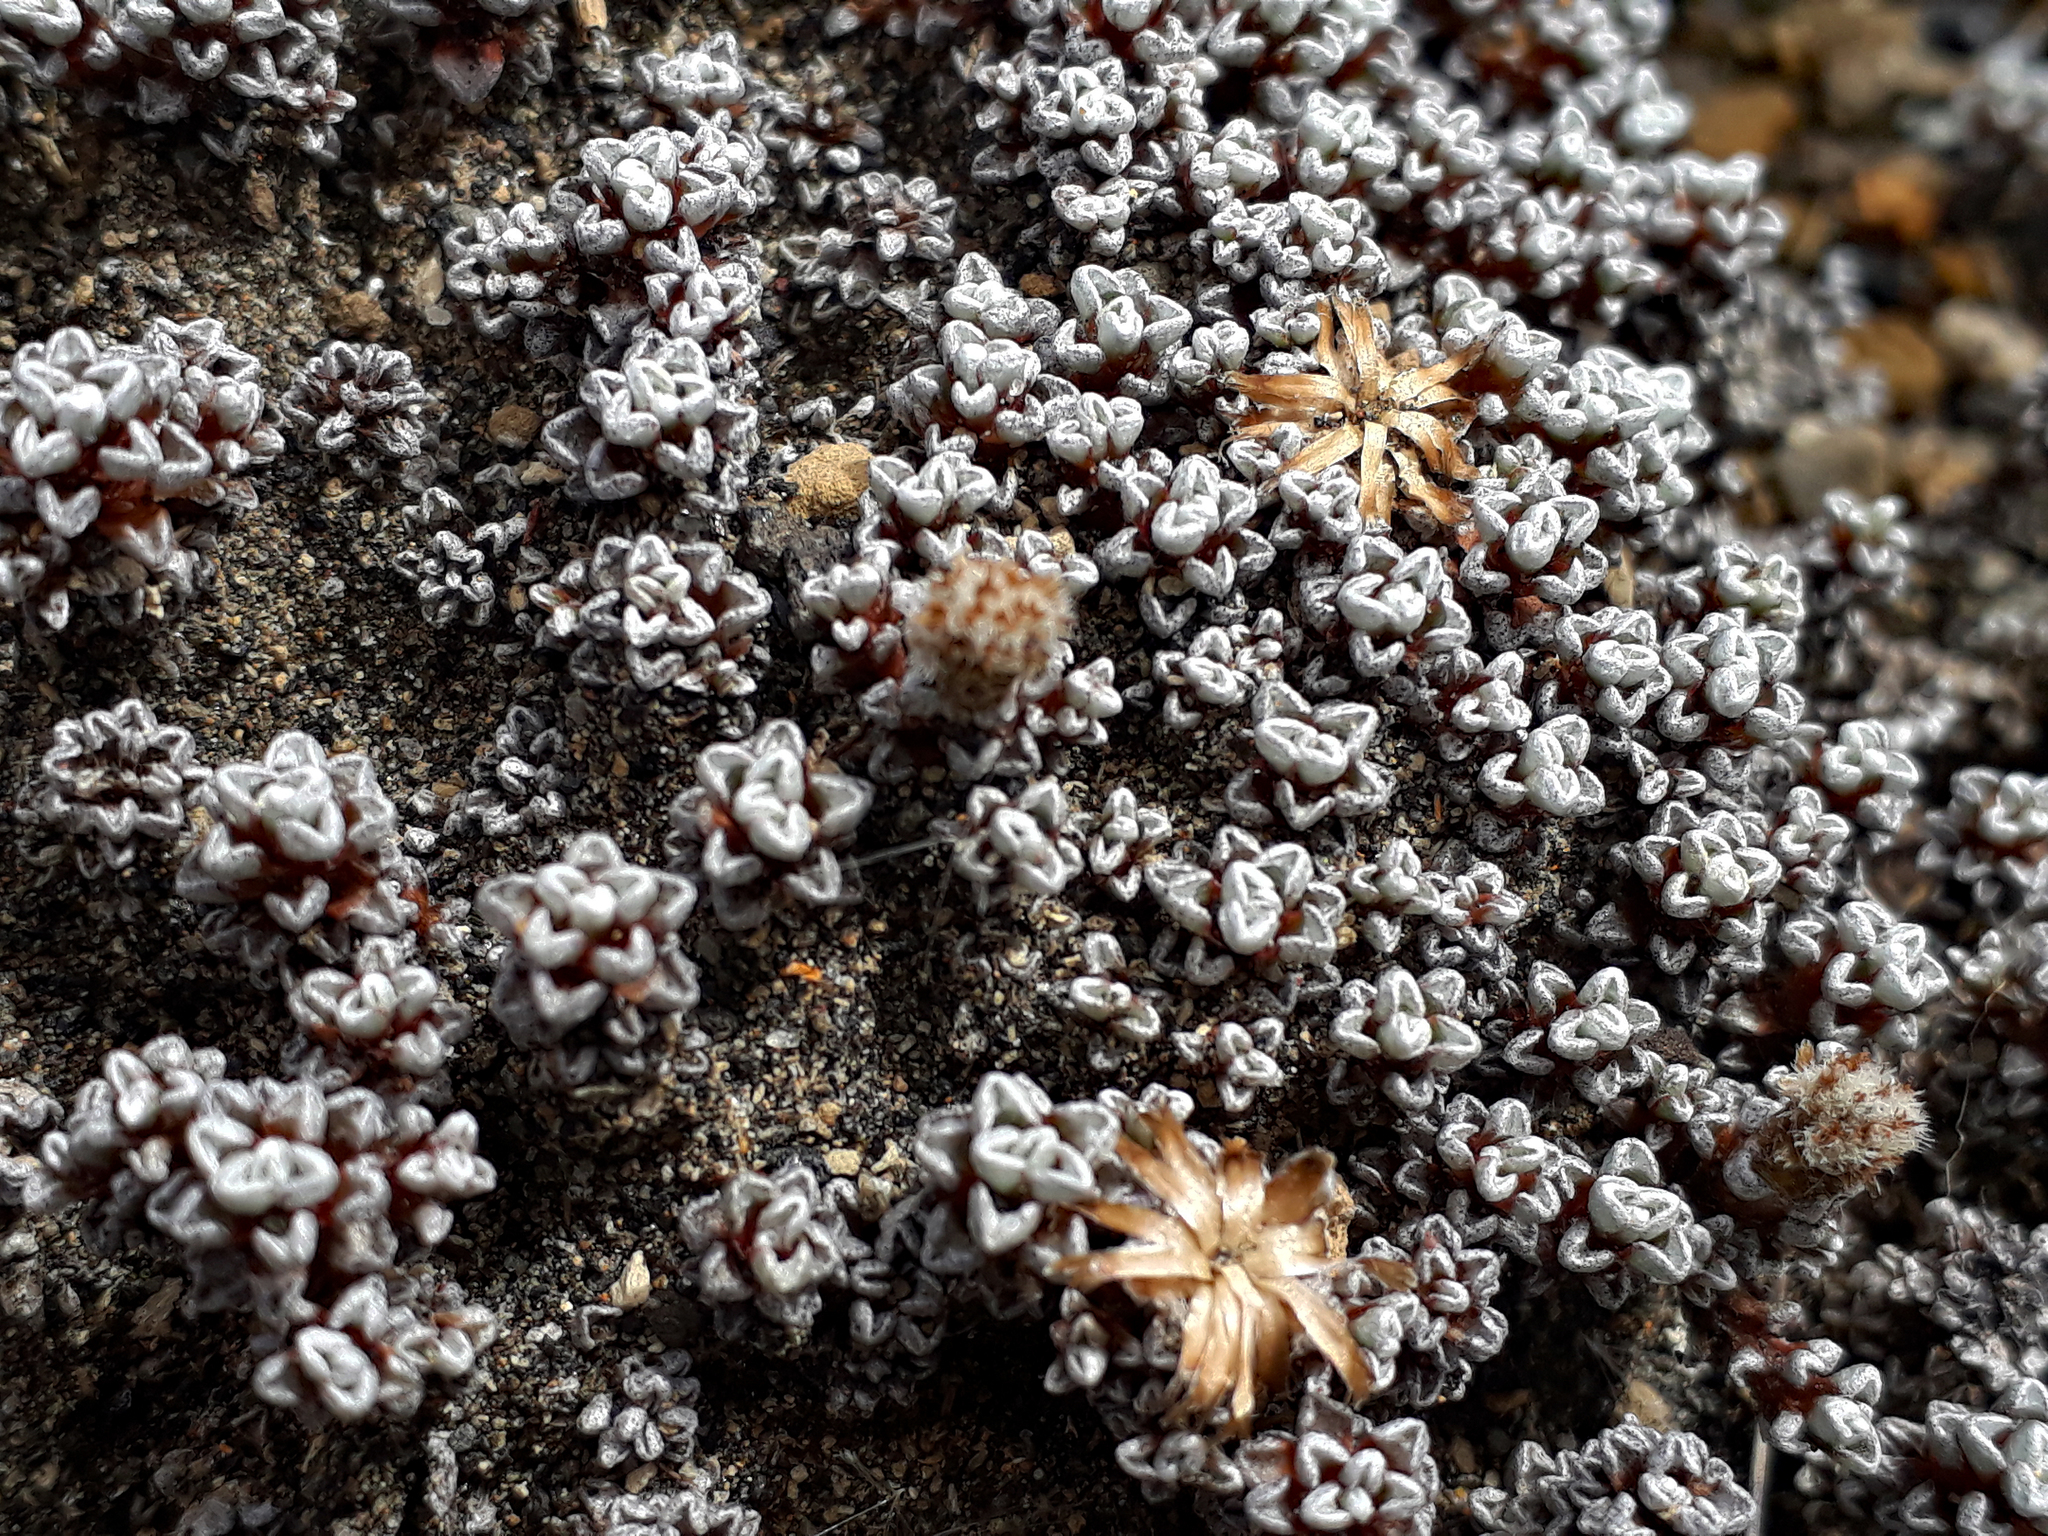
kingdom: Plantae
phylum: Tracheophyta
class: Magnoliopsida
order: Asterales
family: Asteraceae
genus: Raoulia
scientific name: Raoulia albosericea
